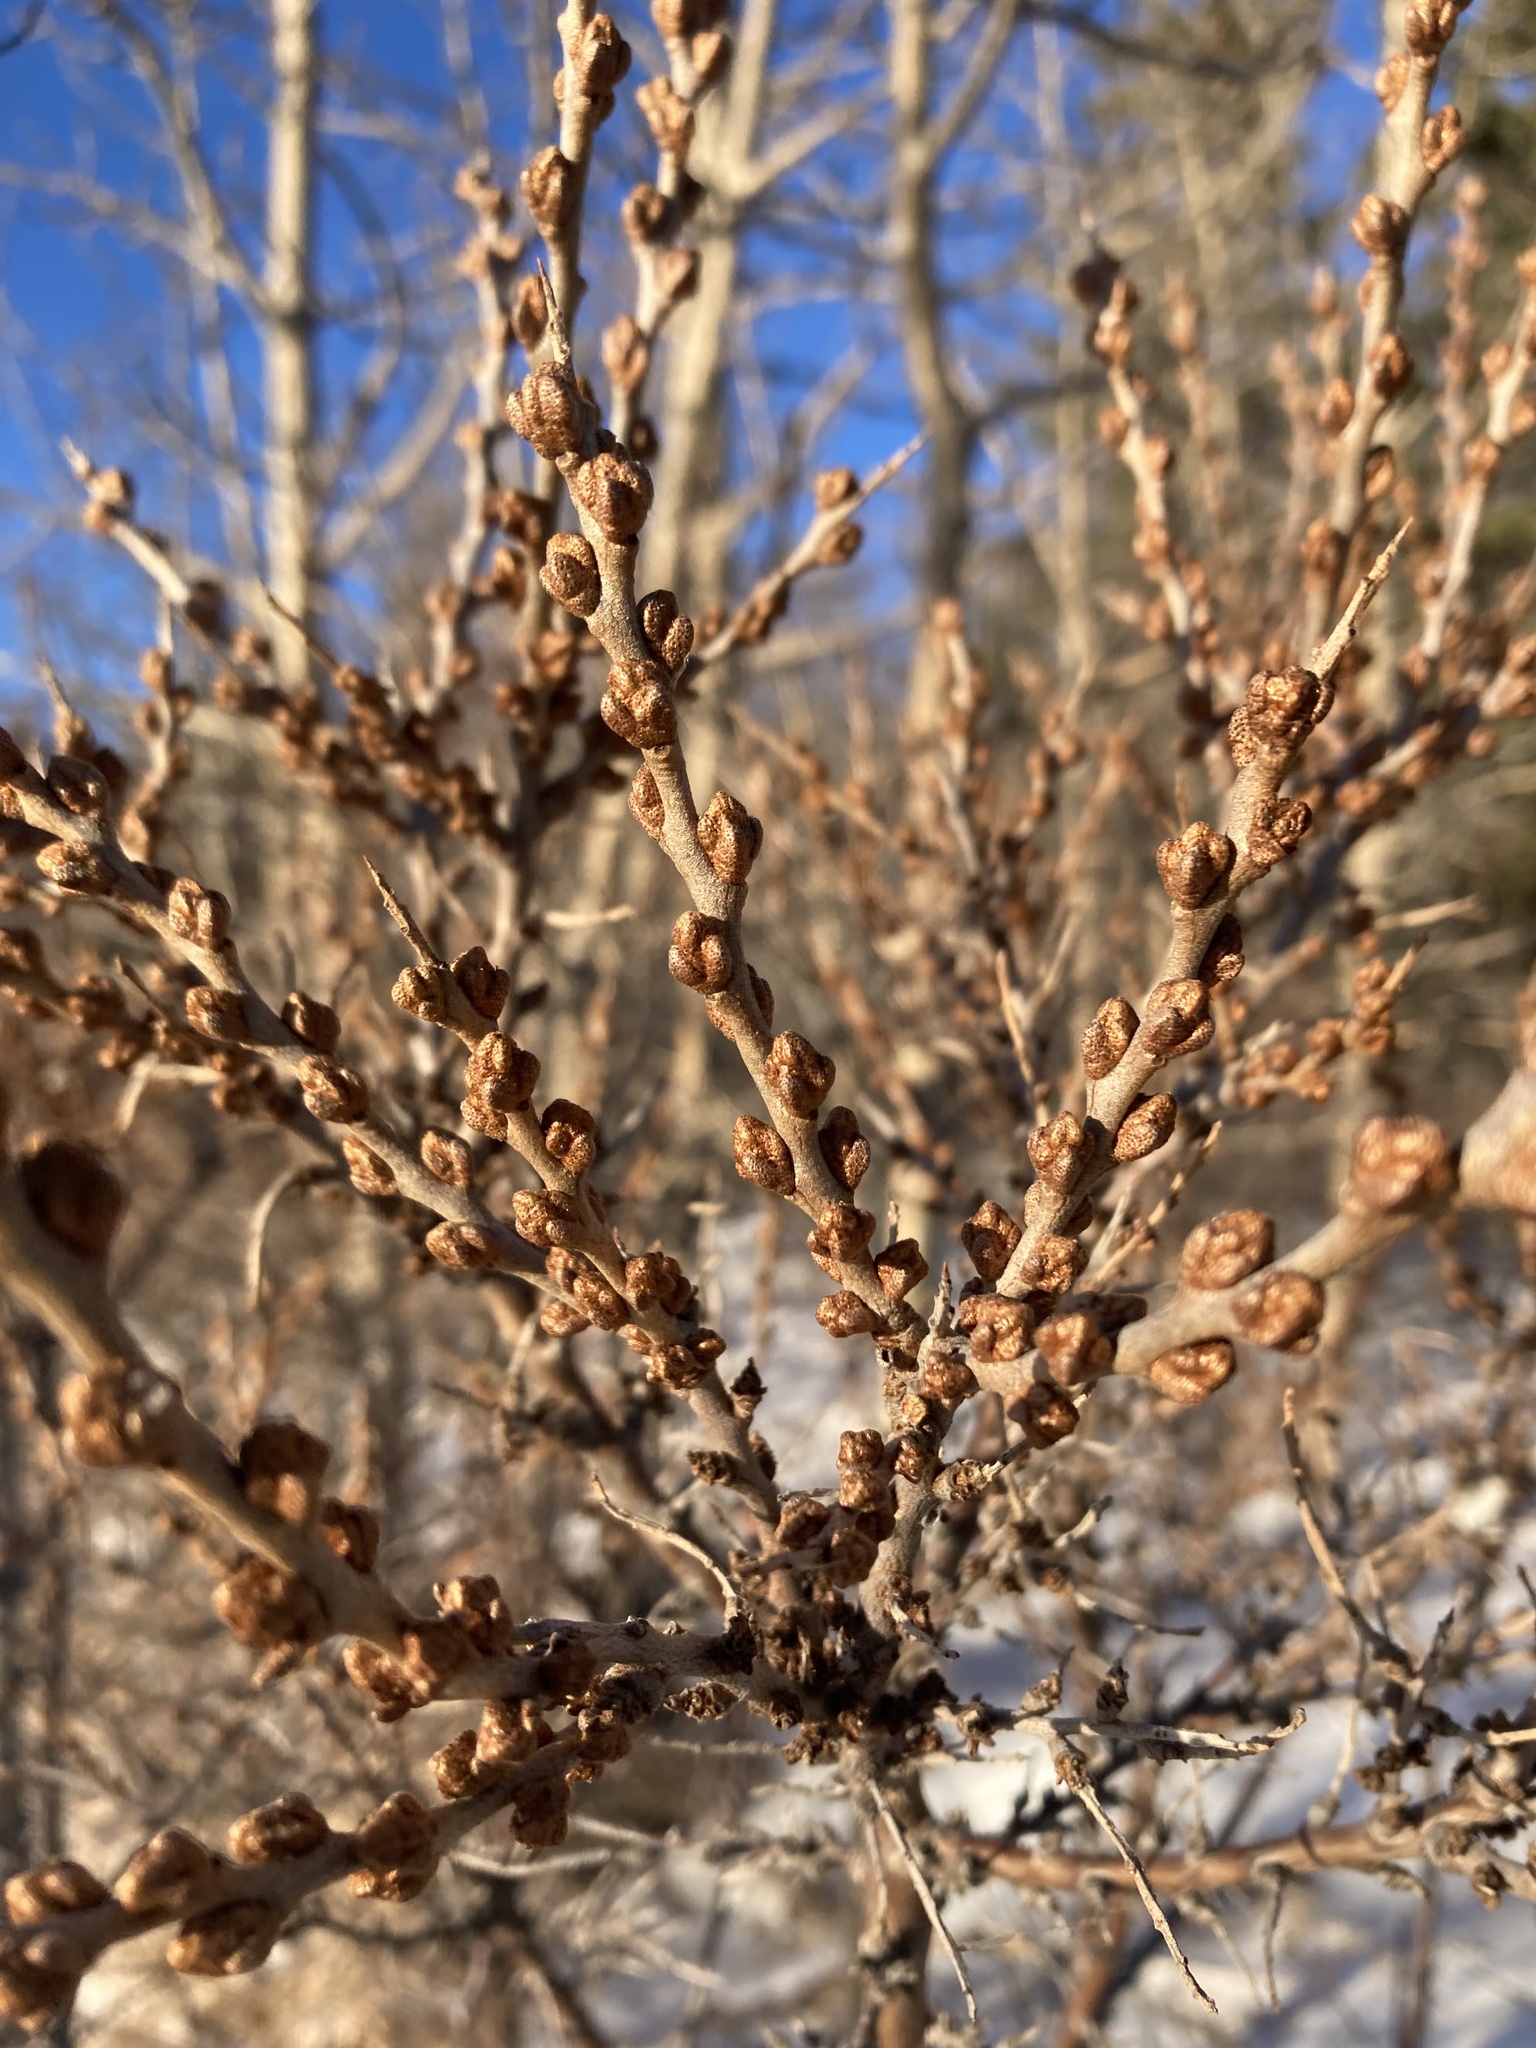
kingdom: Plantae
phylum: Tracheophyta
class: Magnoliopsida
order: Rosales
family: Elaeagnaceae
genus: Hippophae
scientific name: Hippophae rhamnoides
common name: Sea-buckthorn
